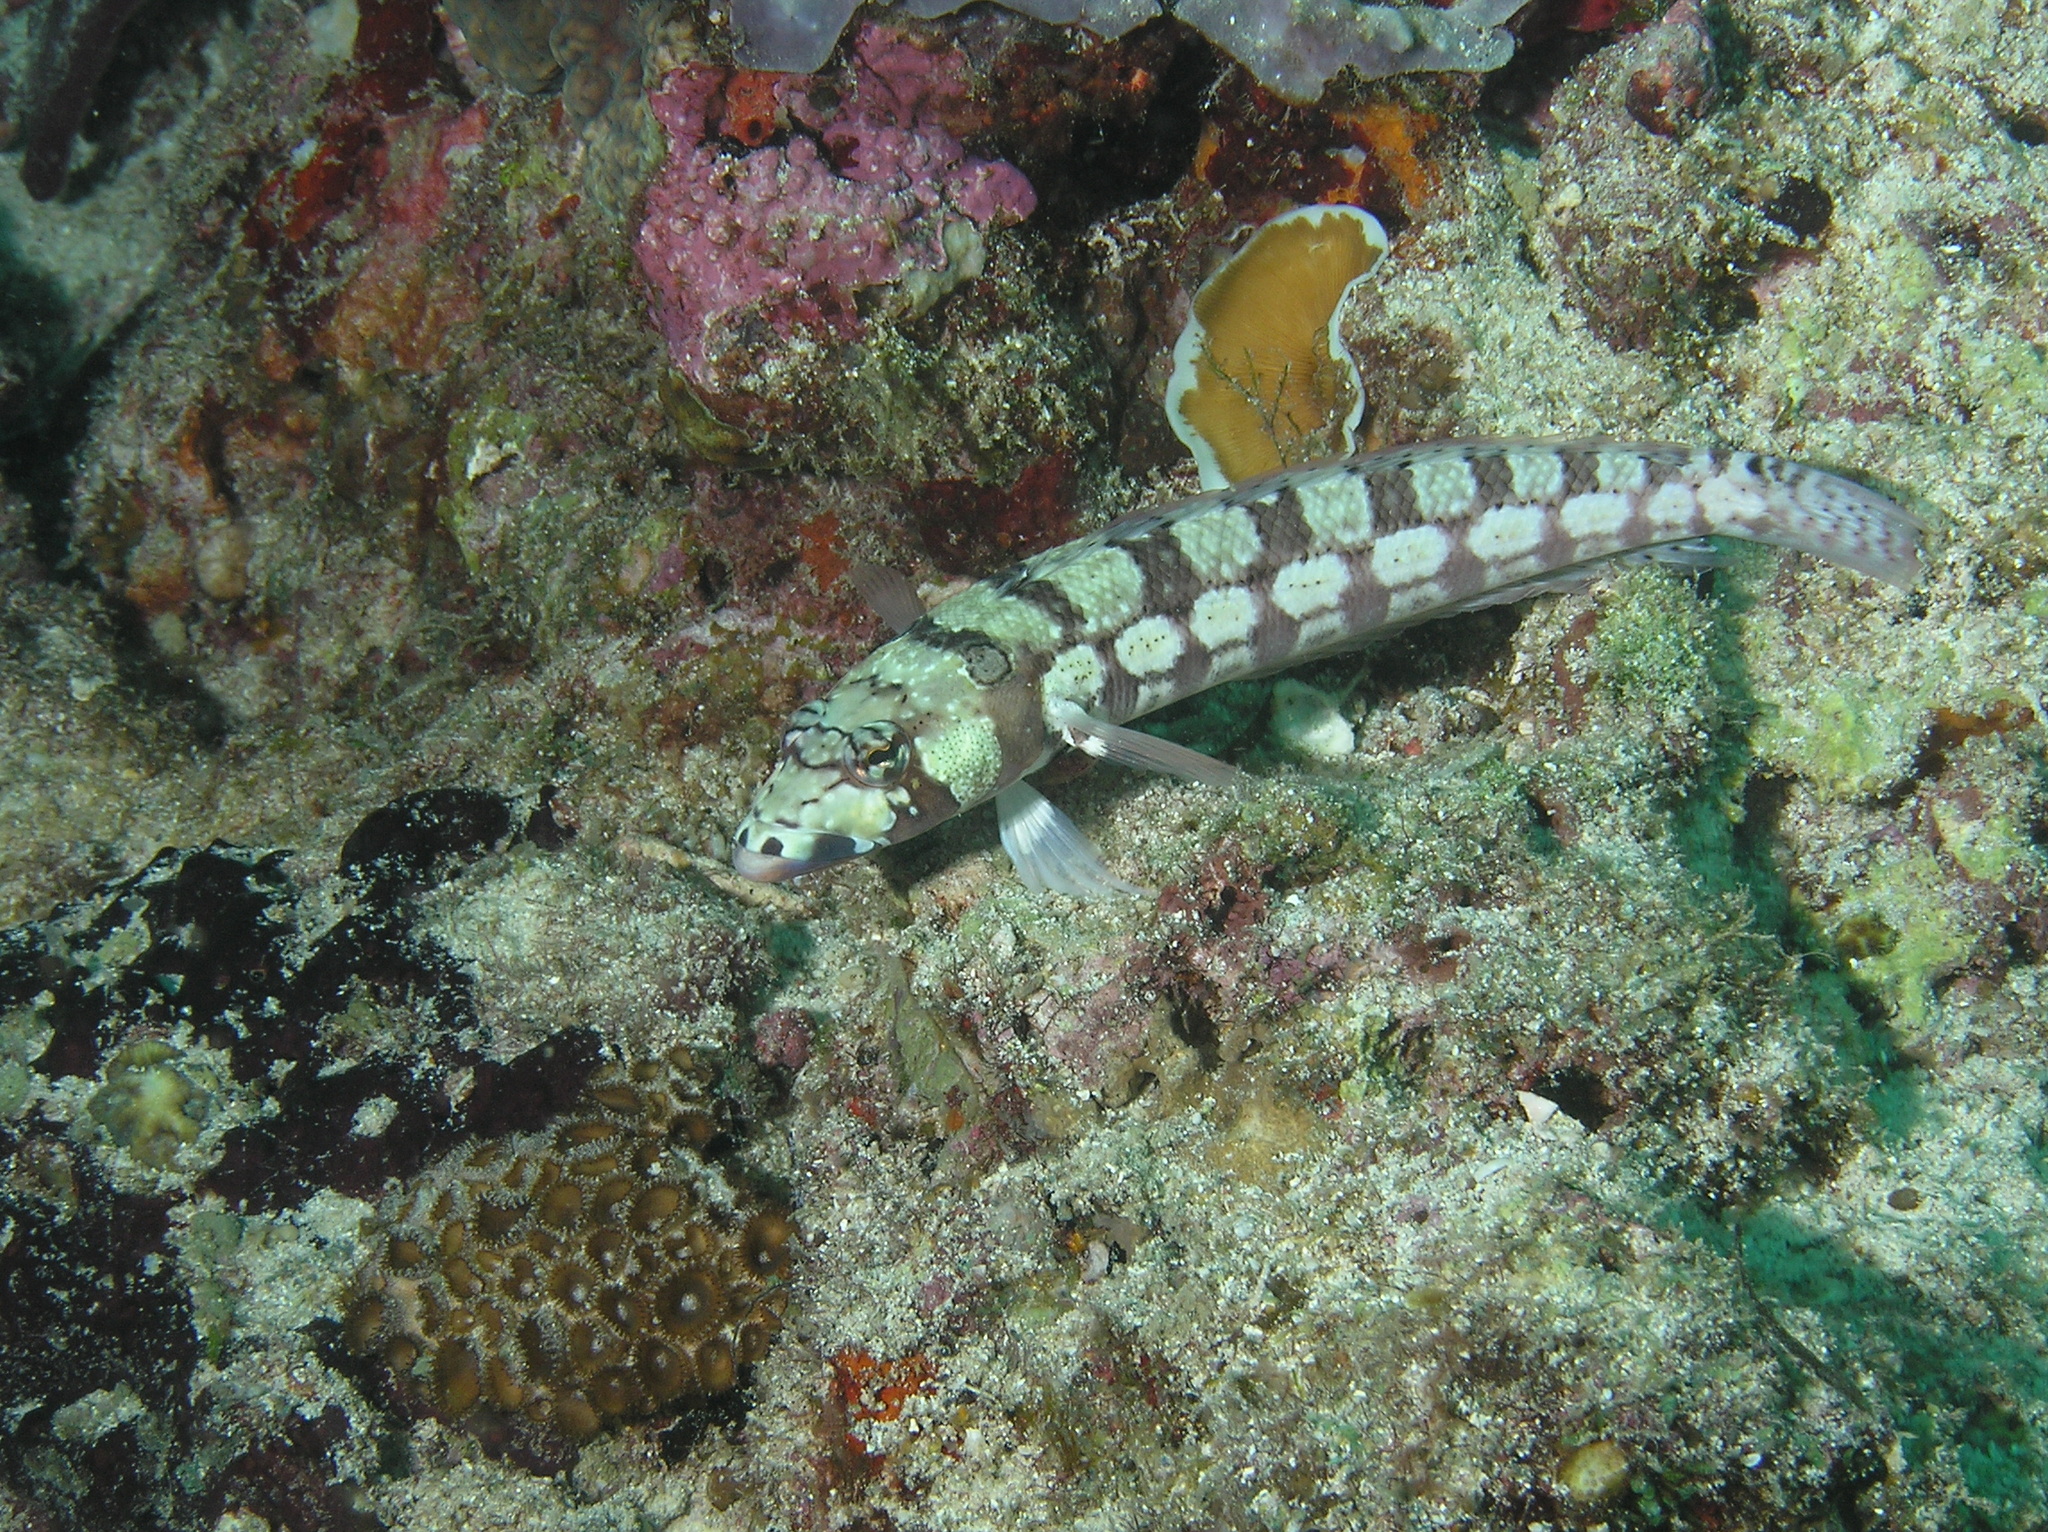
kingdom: Animalia
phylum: Chordata
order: Perciformes
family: Pinguipedidae
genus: Parapercis
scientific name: Parapercis tetracantha
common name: Black-banded grubfish
